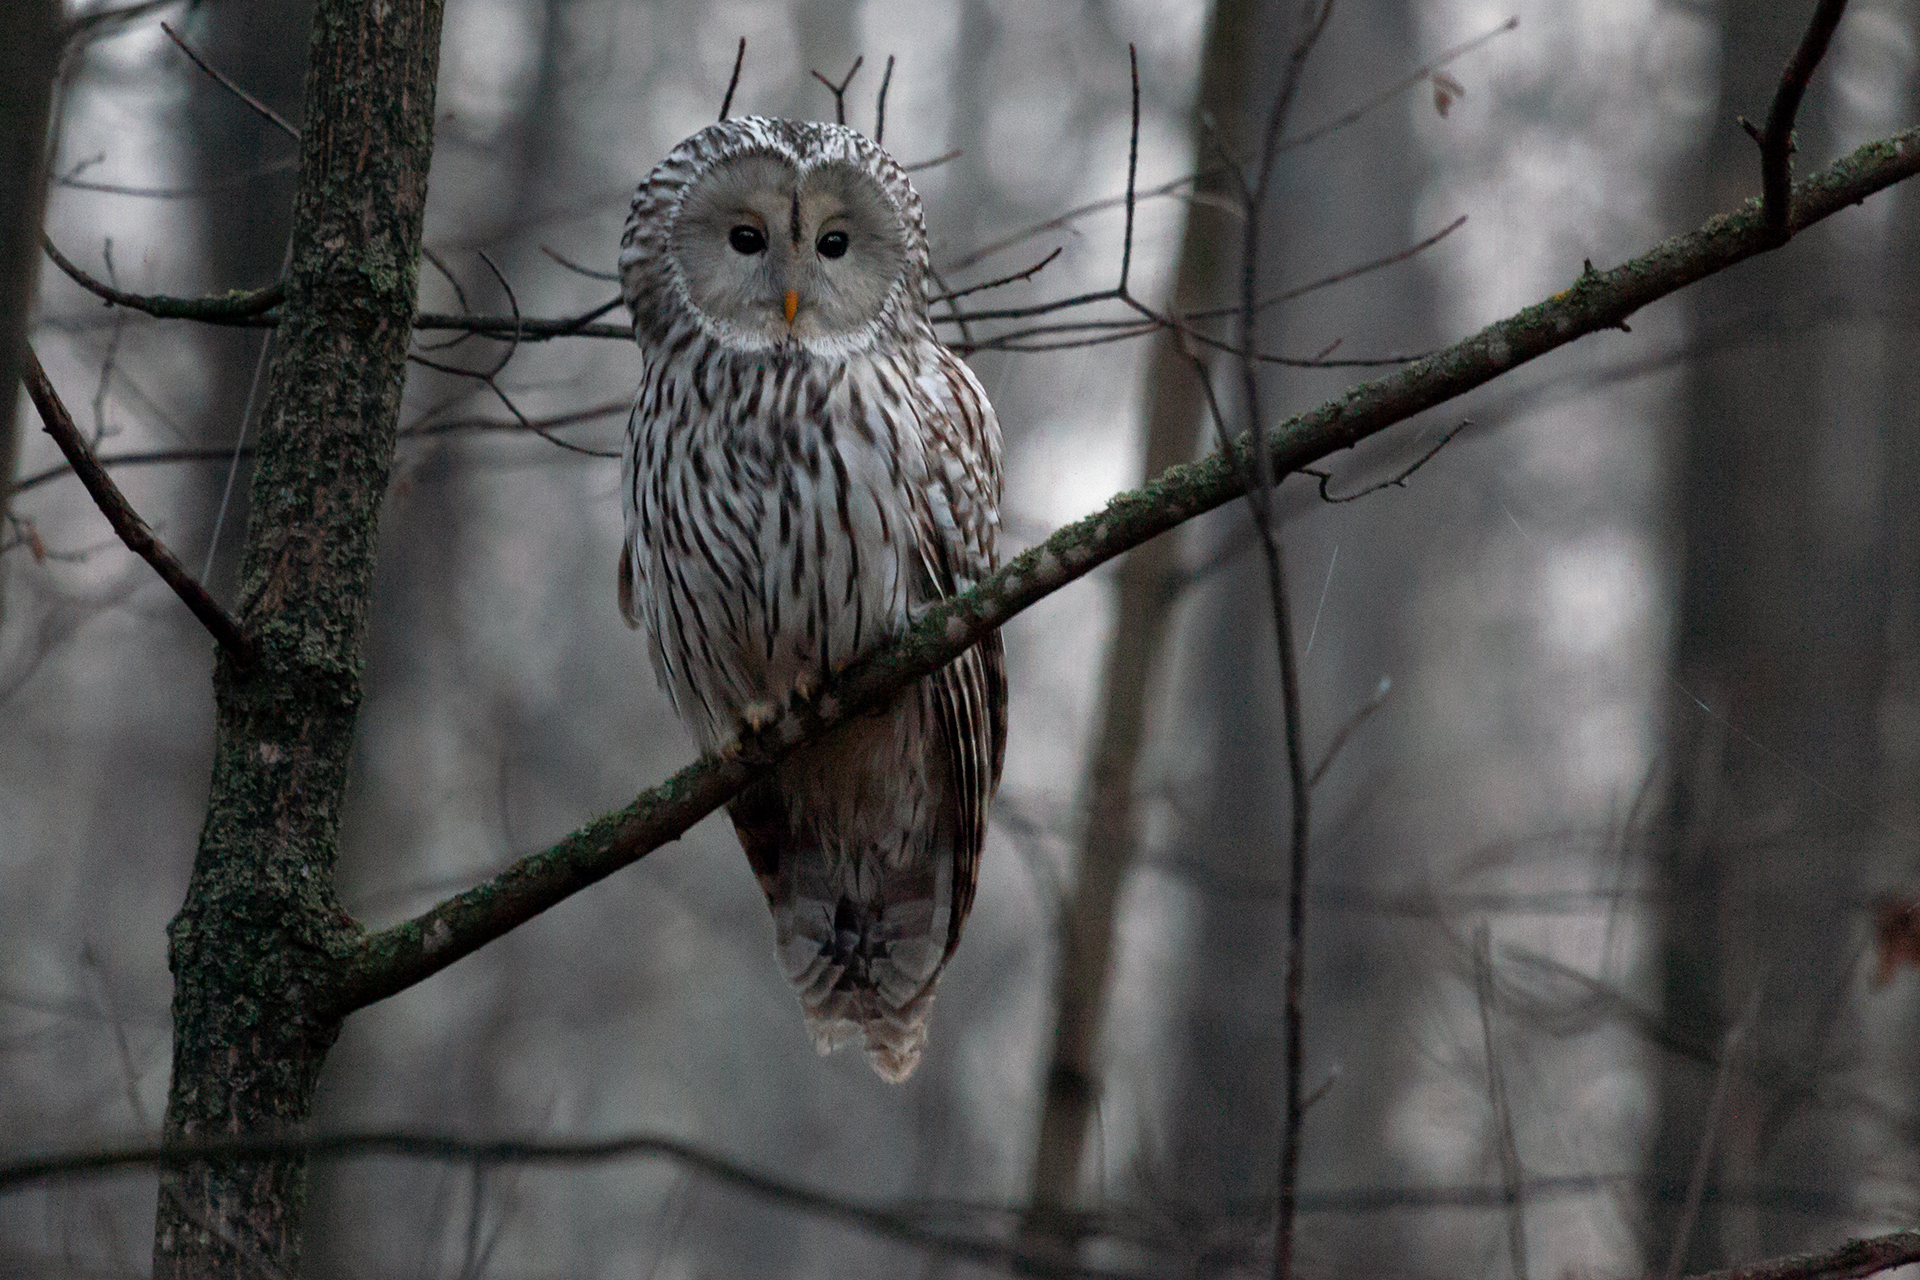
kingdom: Animalia
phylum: Chordata
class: Aves
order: Strigiformes
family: Strigidae
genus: Strix
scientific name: Strix uralensis
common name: Ural owl
